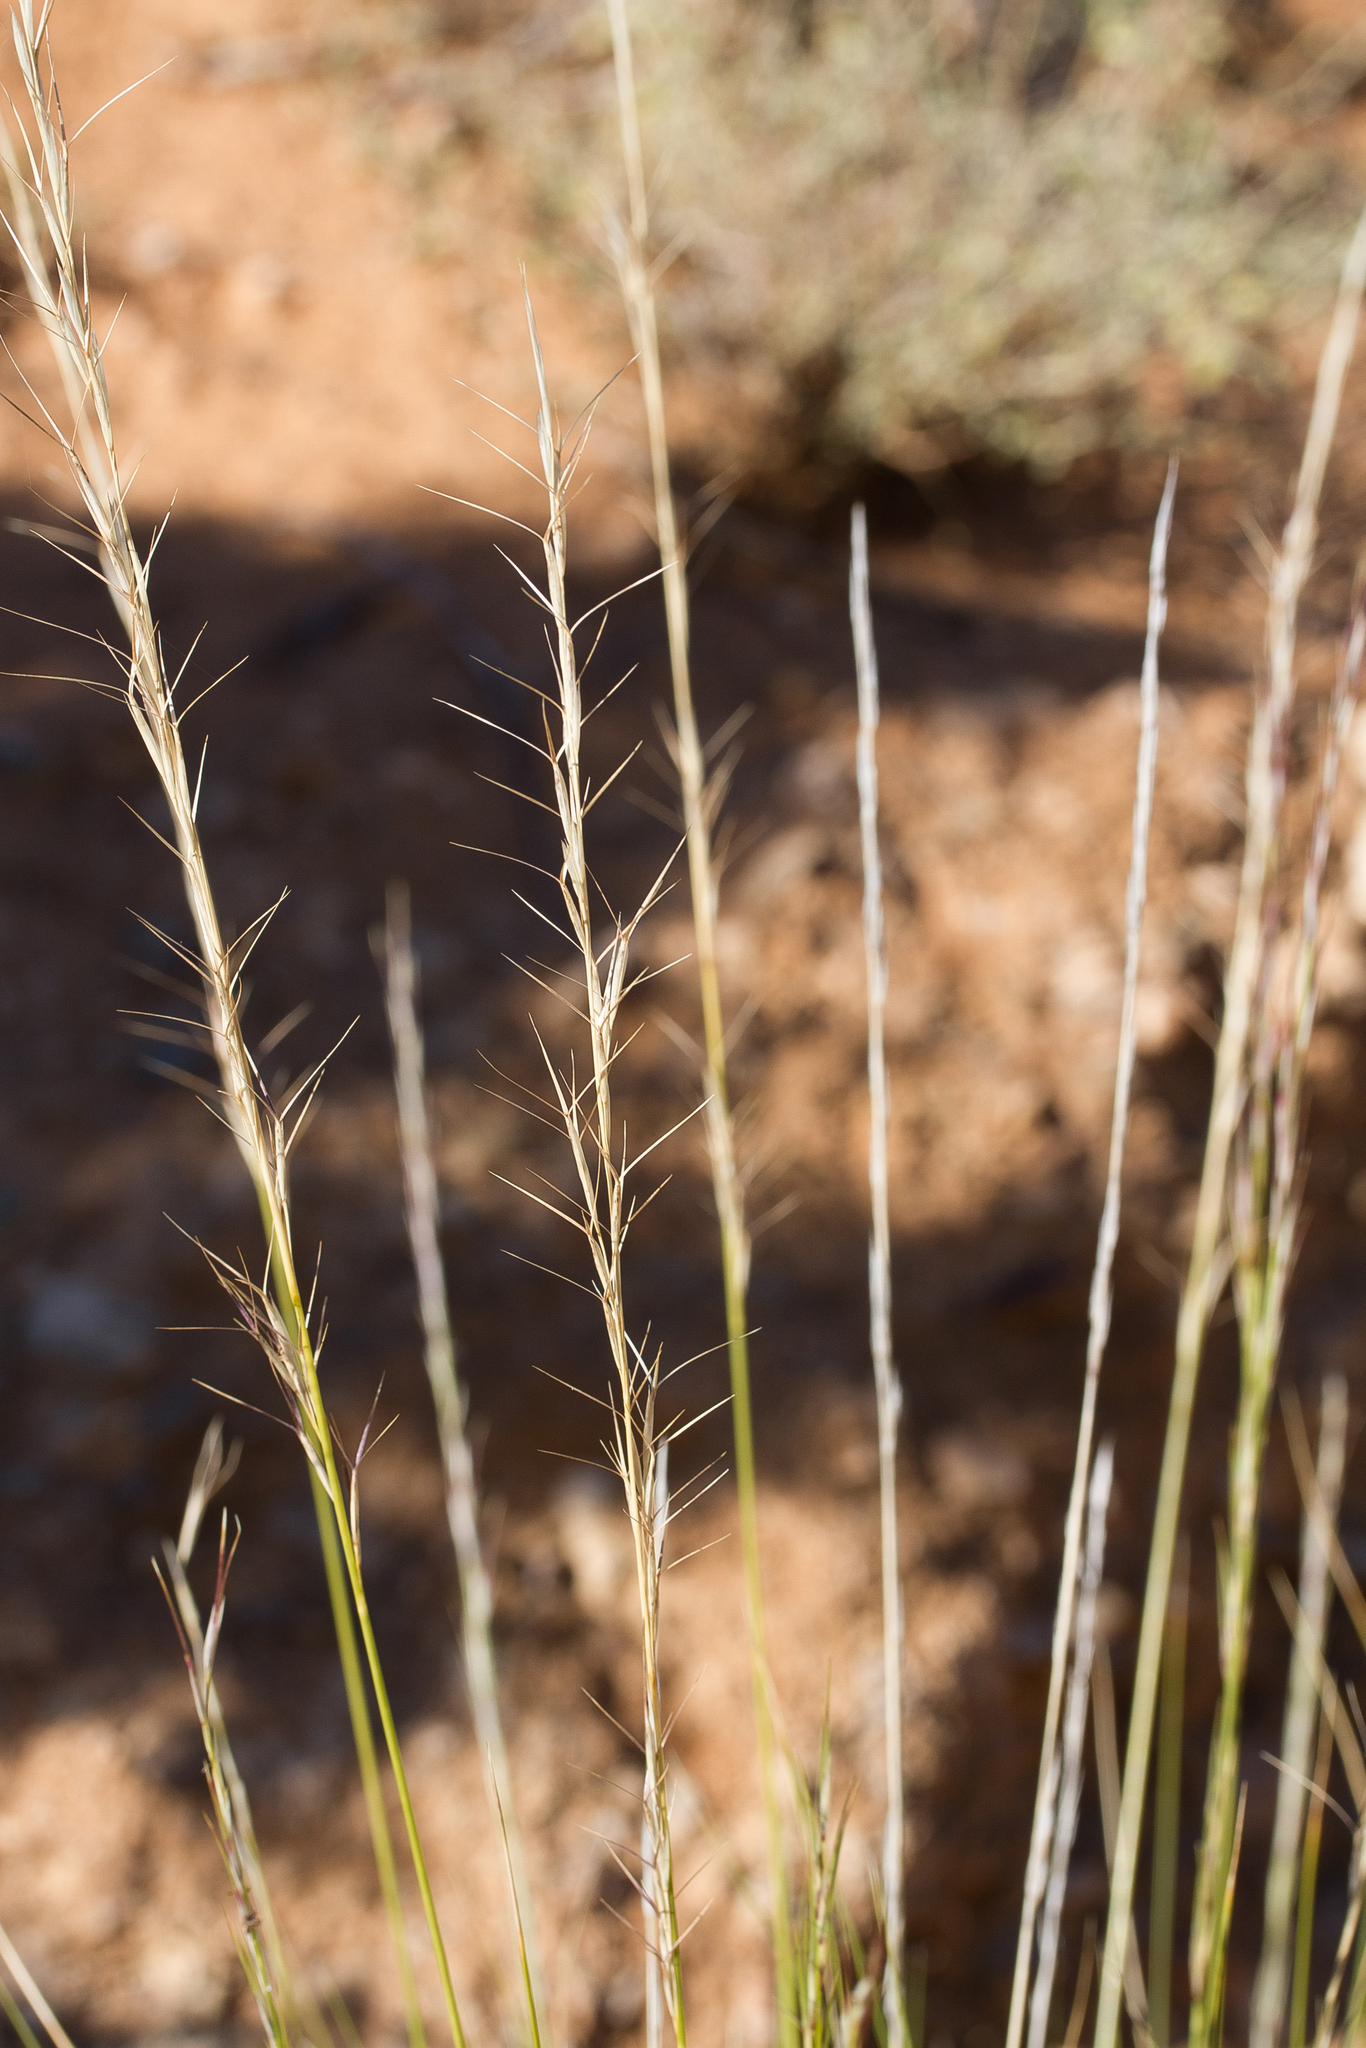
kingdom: Plantae
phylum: Tracheophyta
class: Liliopsida
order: Poales
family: Poaceae
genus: Aristida
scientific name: Aristida nitidula
